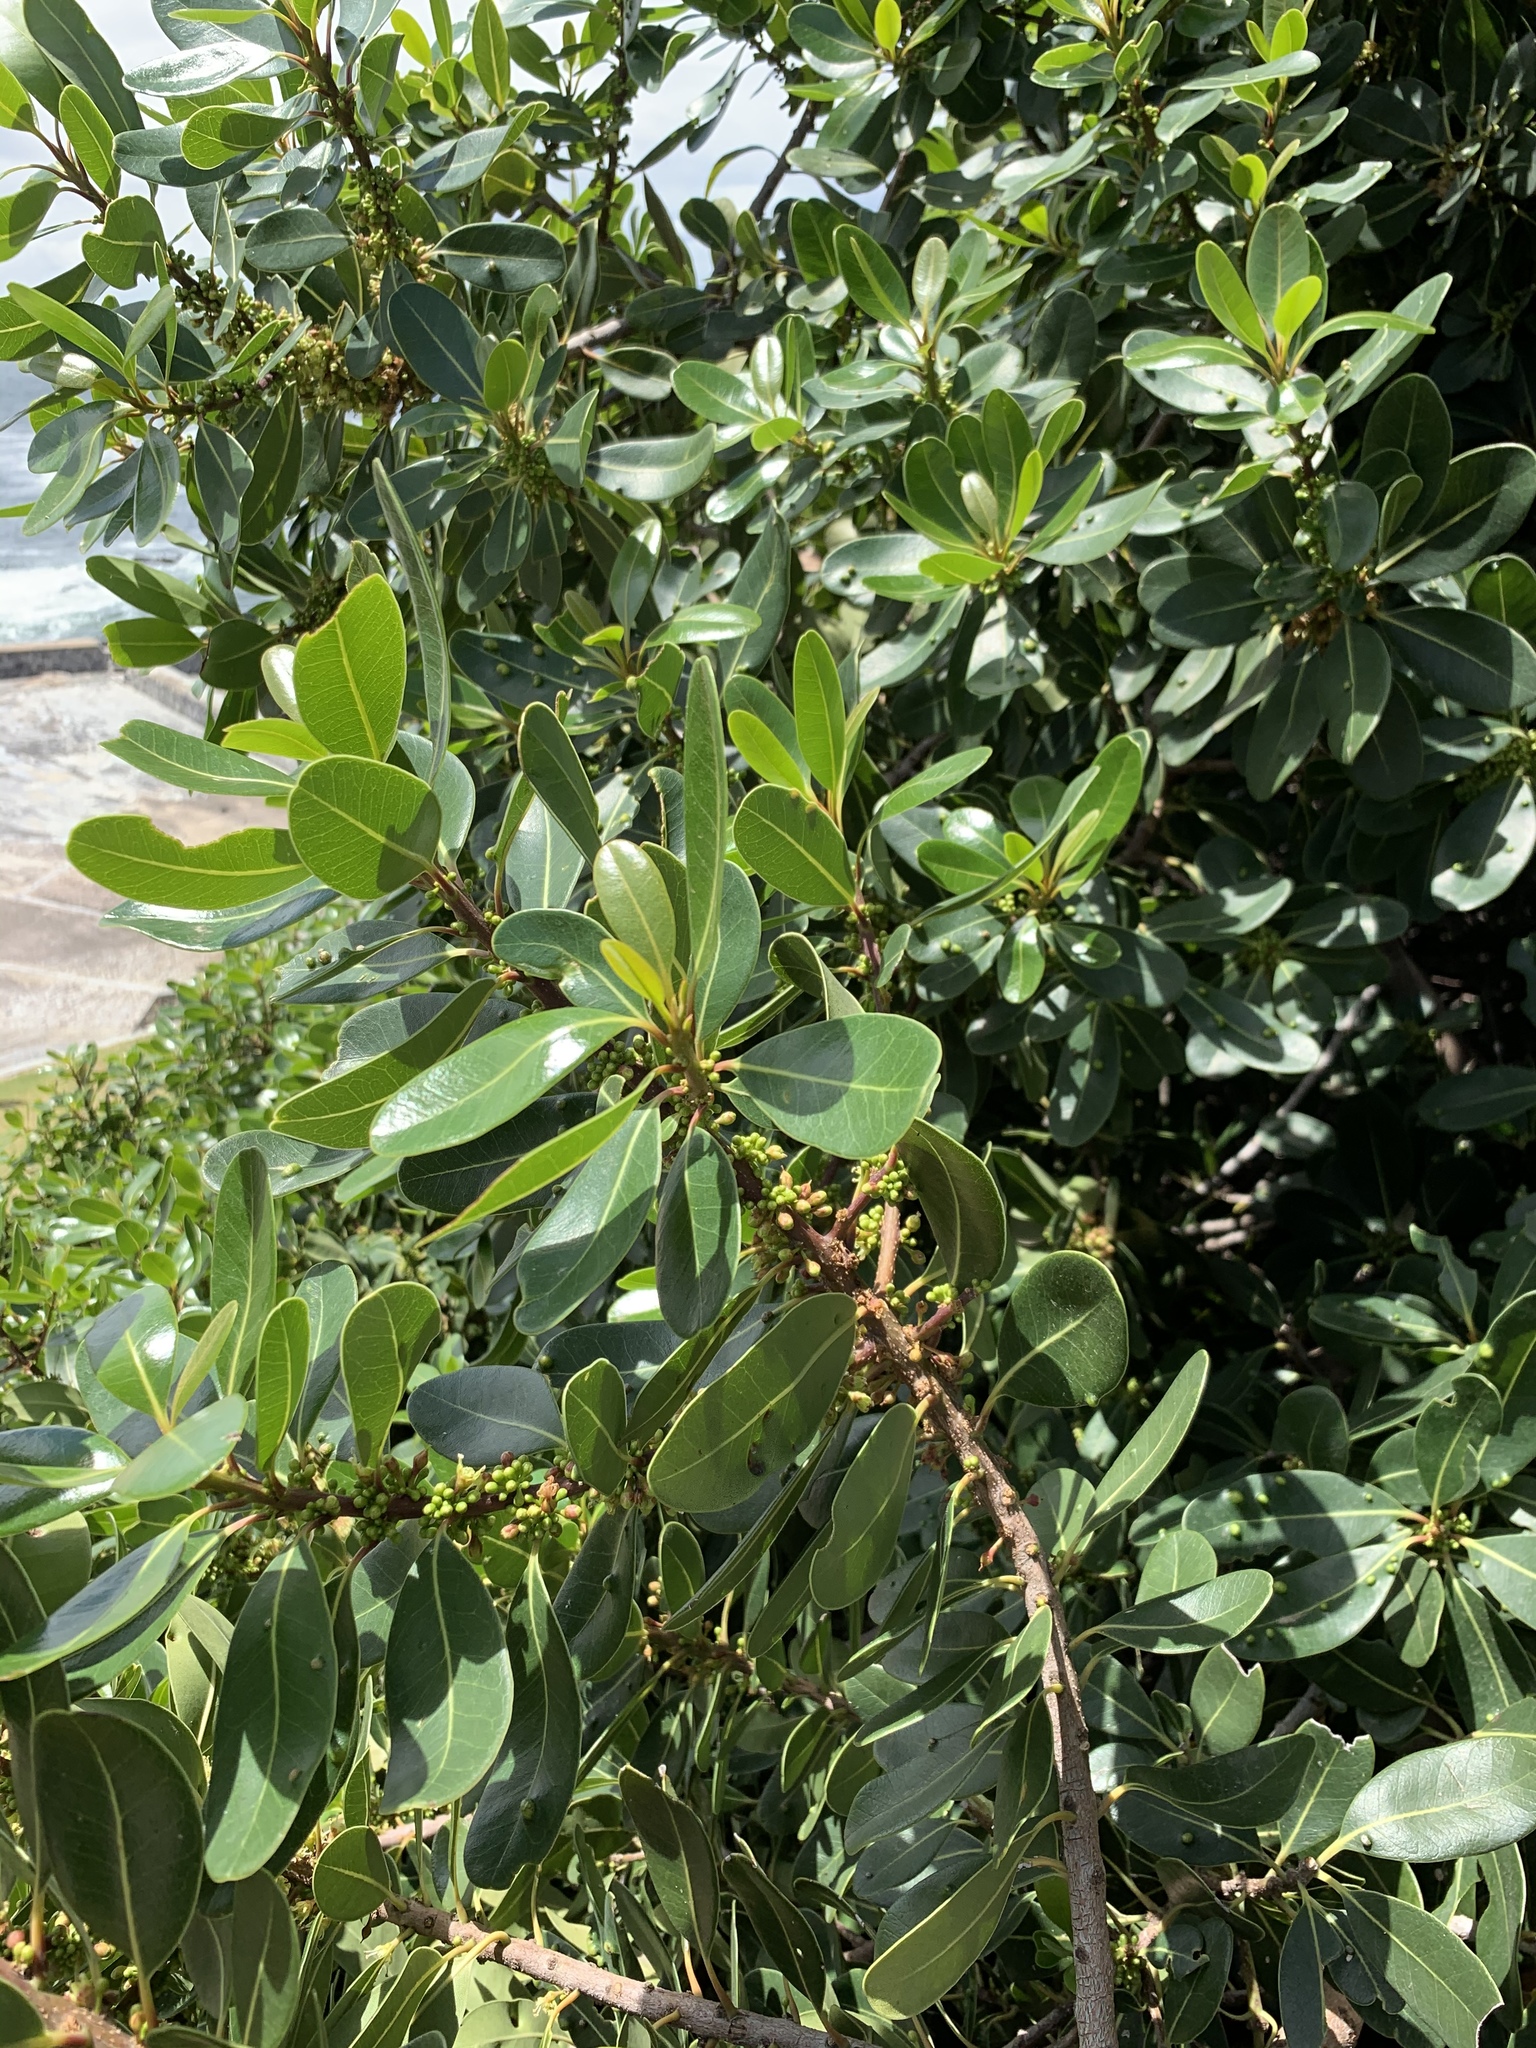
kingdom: Plantae
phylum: Tracheophyta
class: Magnoliopsida
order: Ericales
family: Sapotaceae
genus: Sideroxylon
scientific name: Sideroxylon inerme
